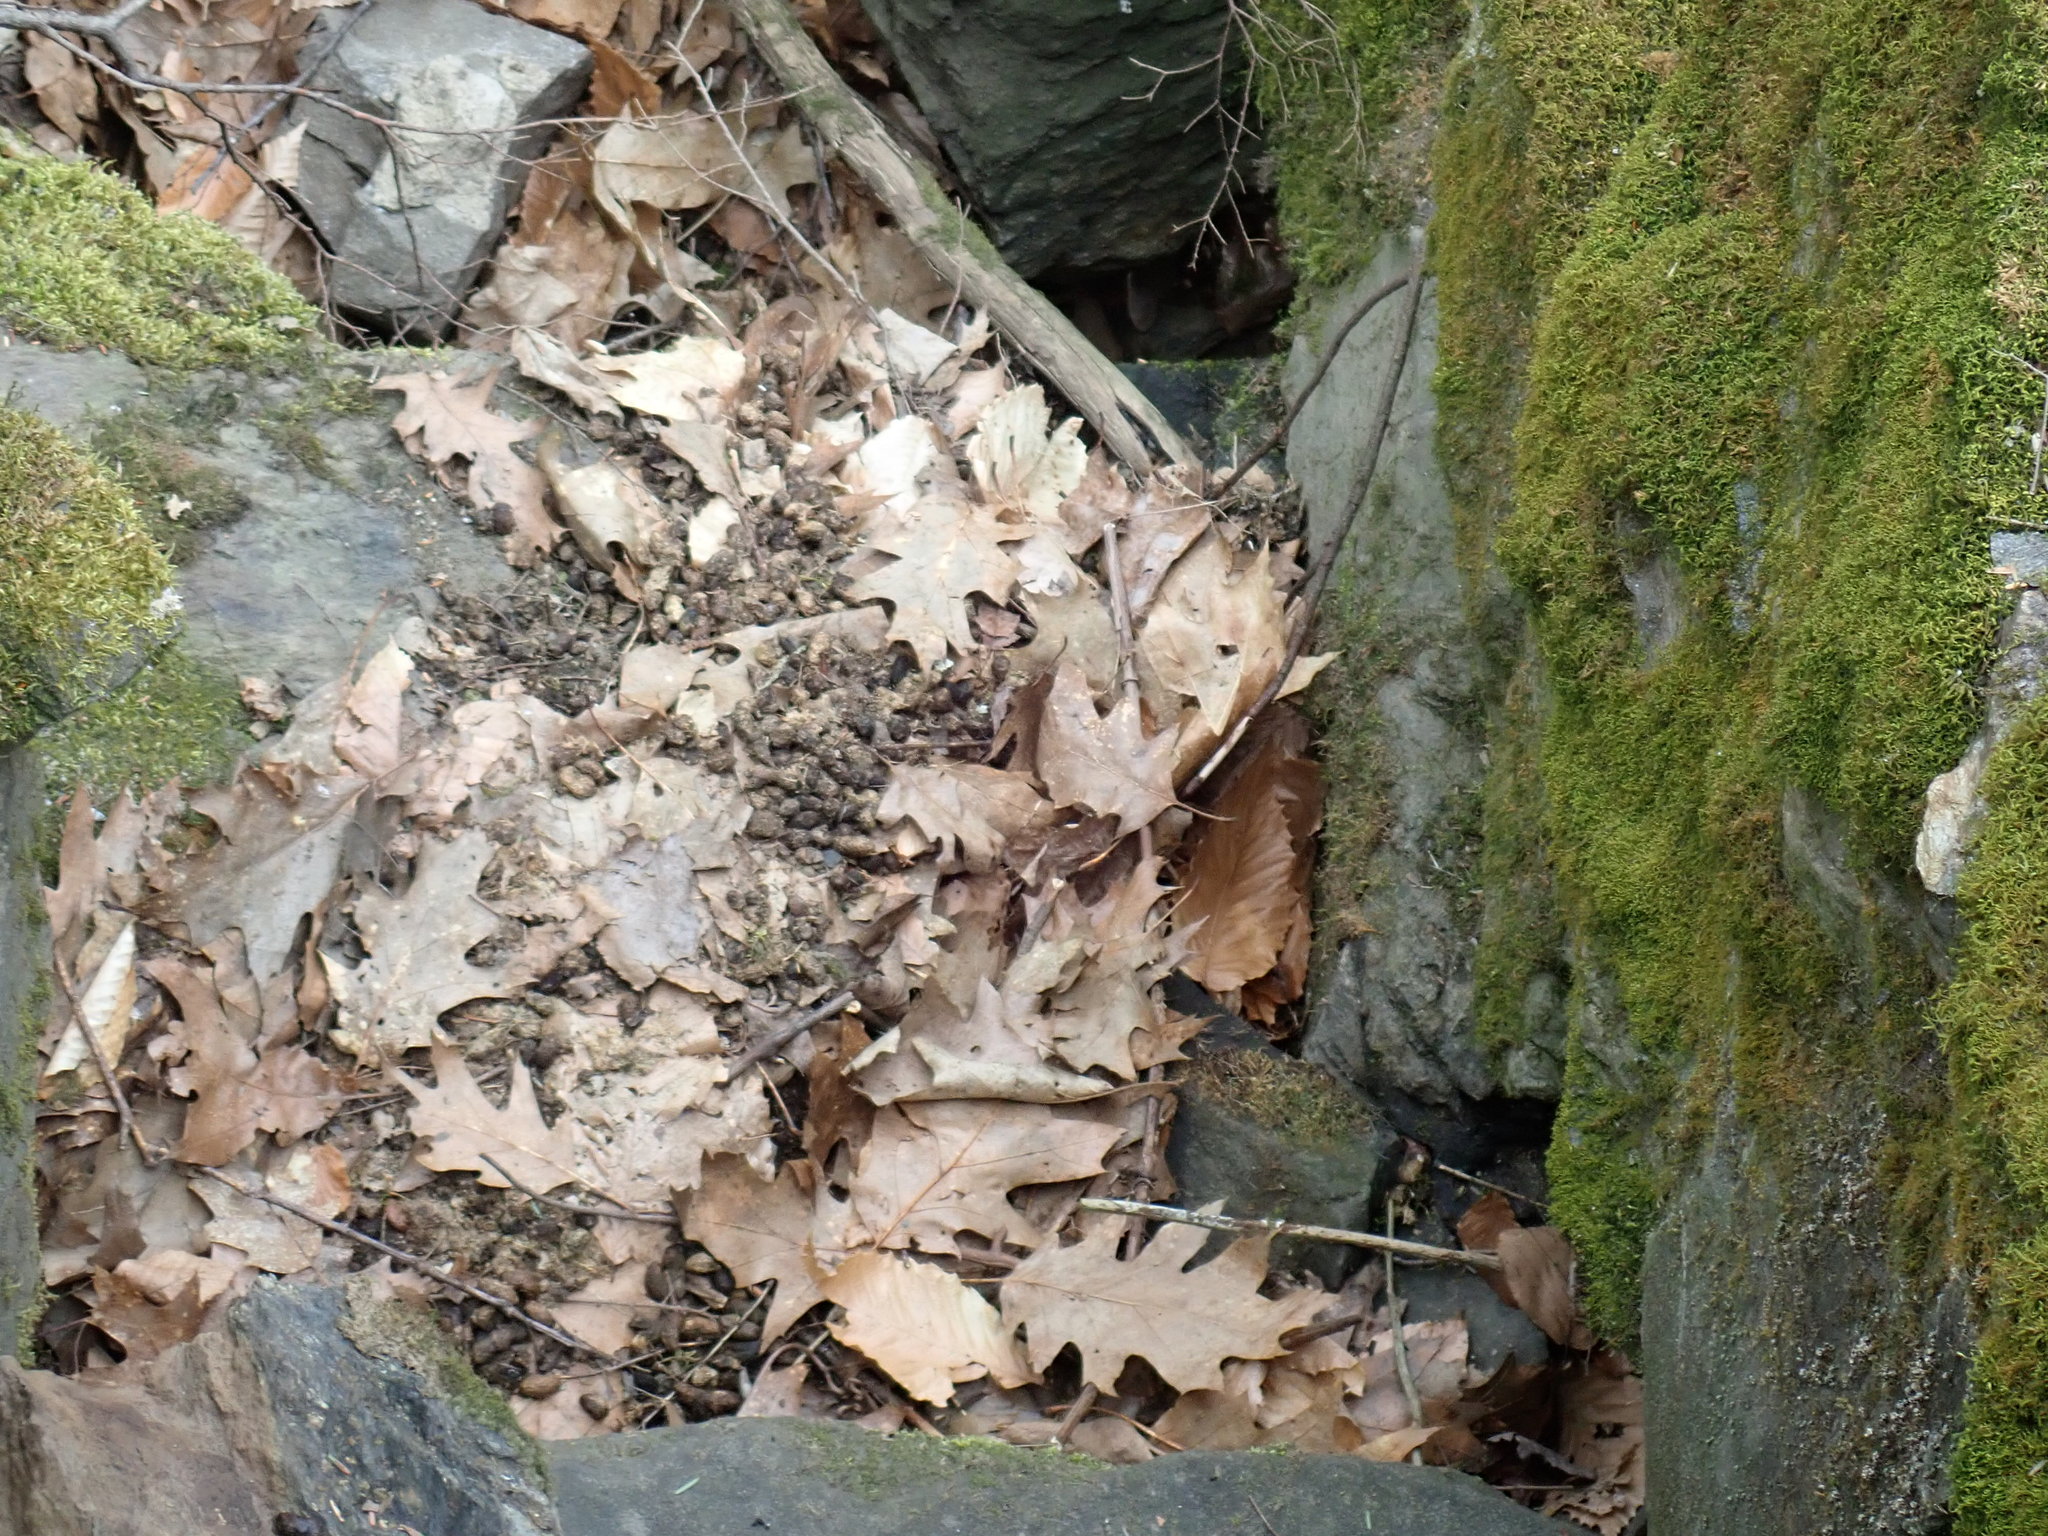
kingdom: Animalia
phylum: Chordata
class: Mammalia
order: Rodentia
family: Erethizontidae
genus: Erethizon
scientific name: Erethizon dorsatus
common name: North american porcupine
